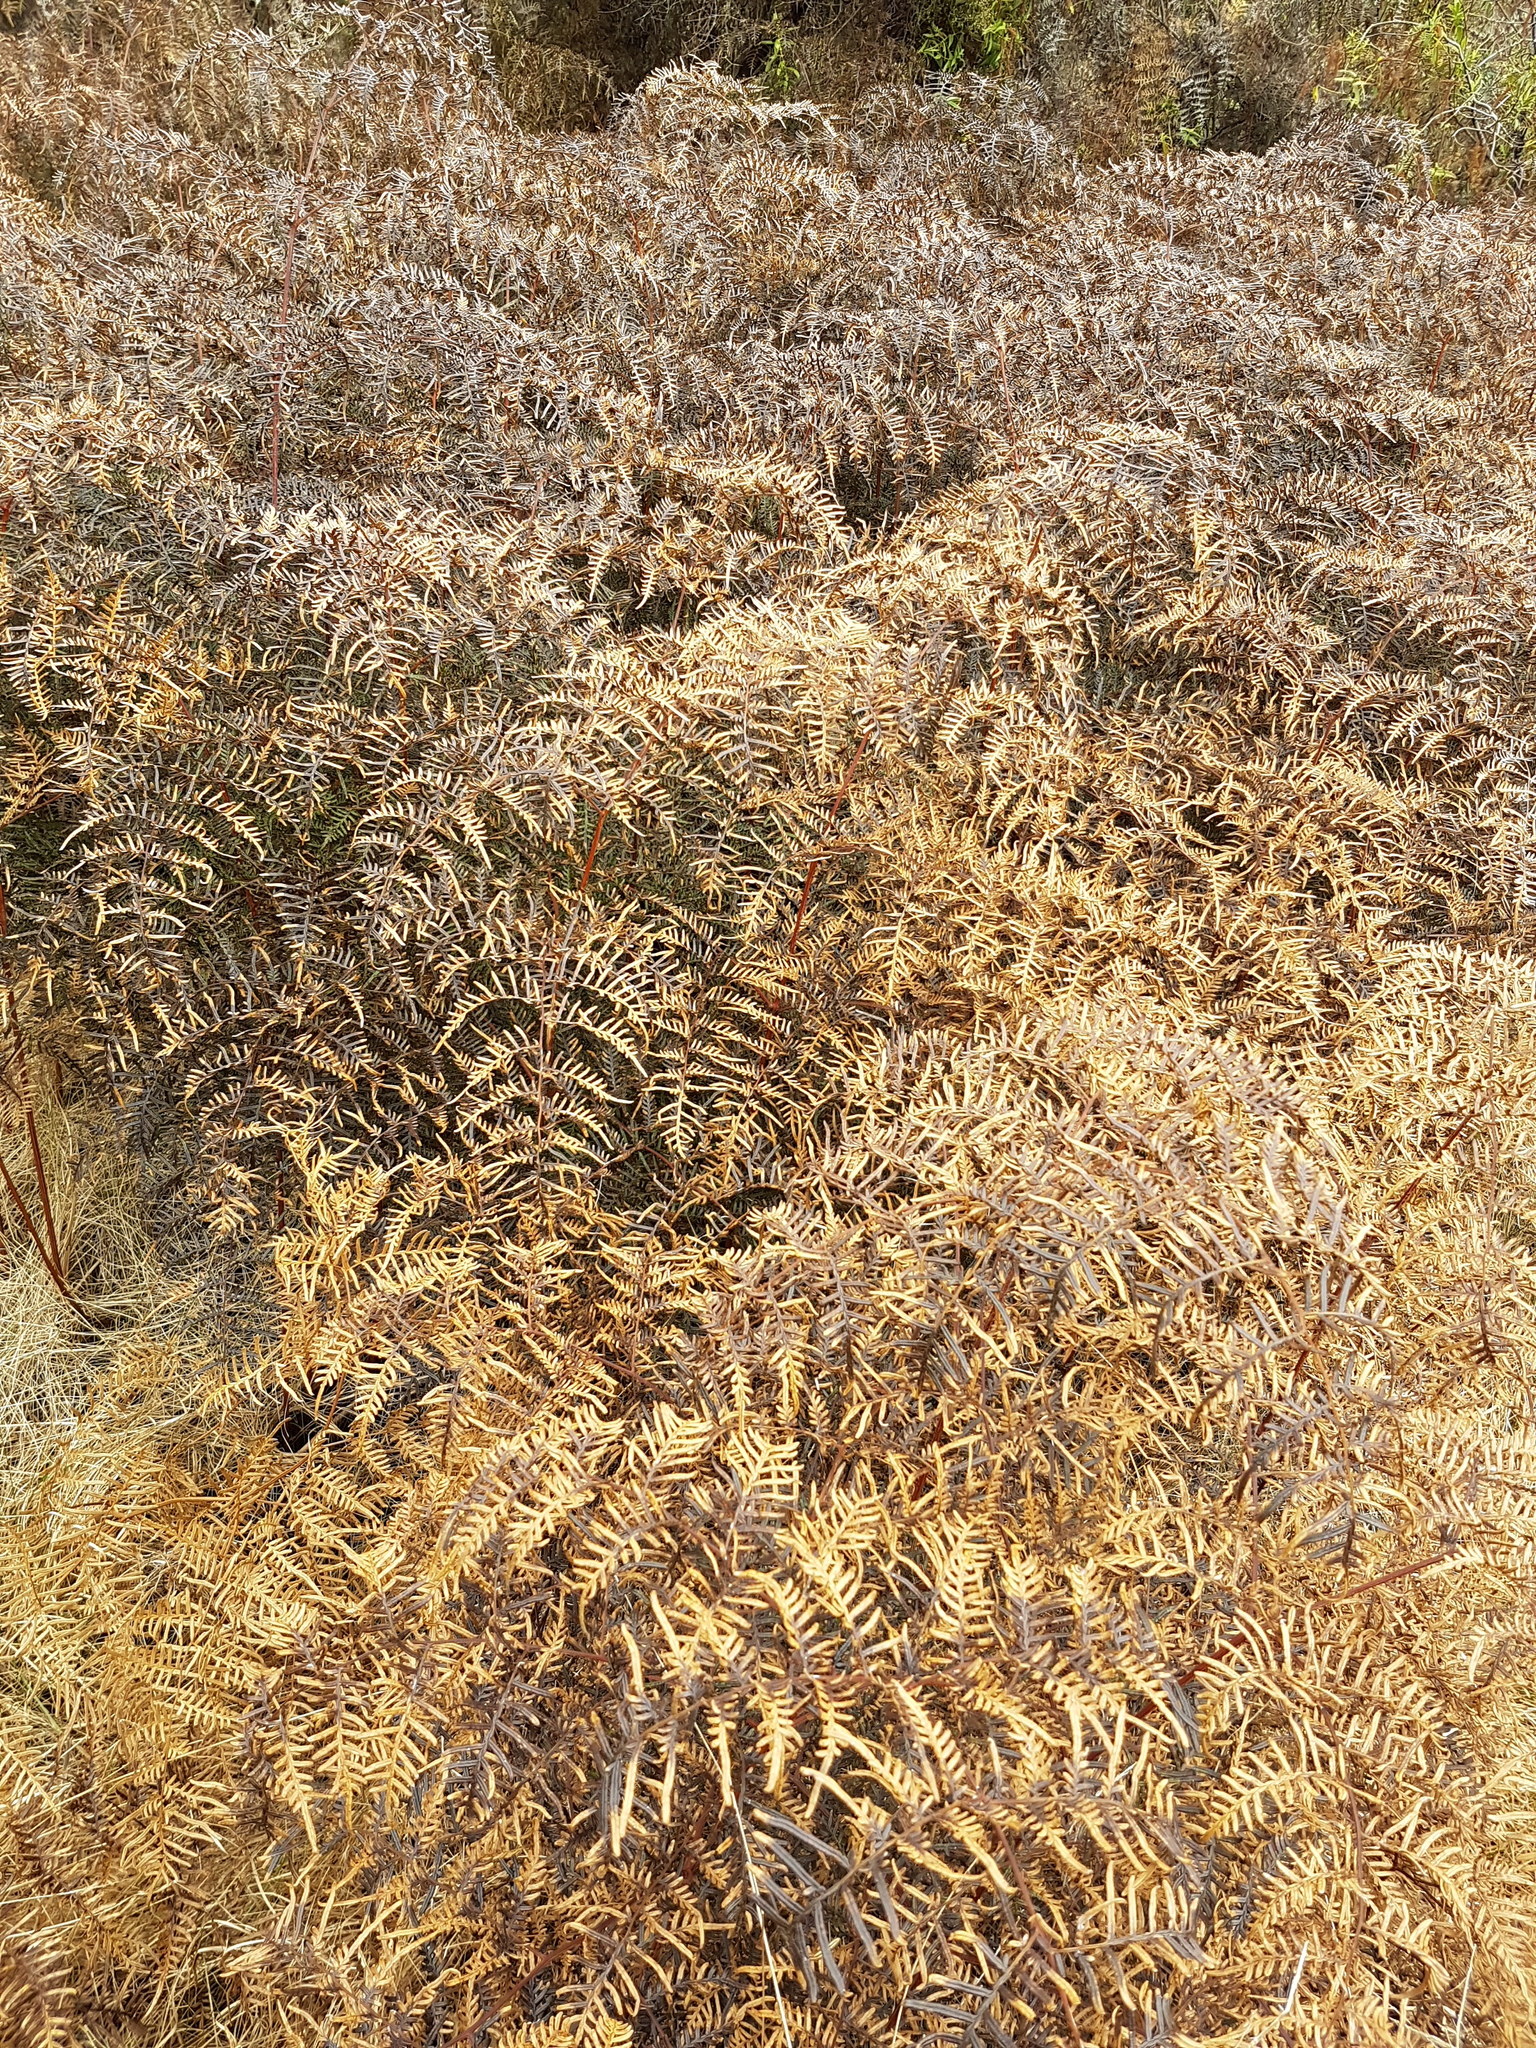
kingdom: Plantae
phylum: Tracheophyta
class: Polypodiopsida
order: Polypodiales
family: Dennstaedtiaceae
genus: Pteridium
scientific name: Pteridium esculentum
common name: Bracken fern
